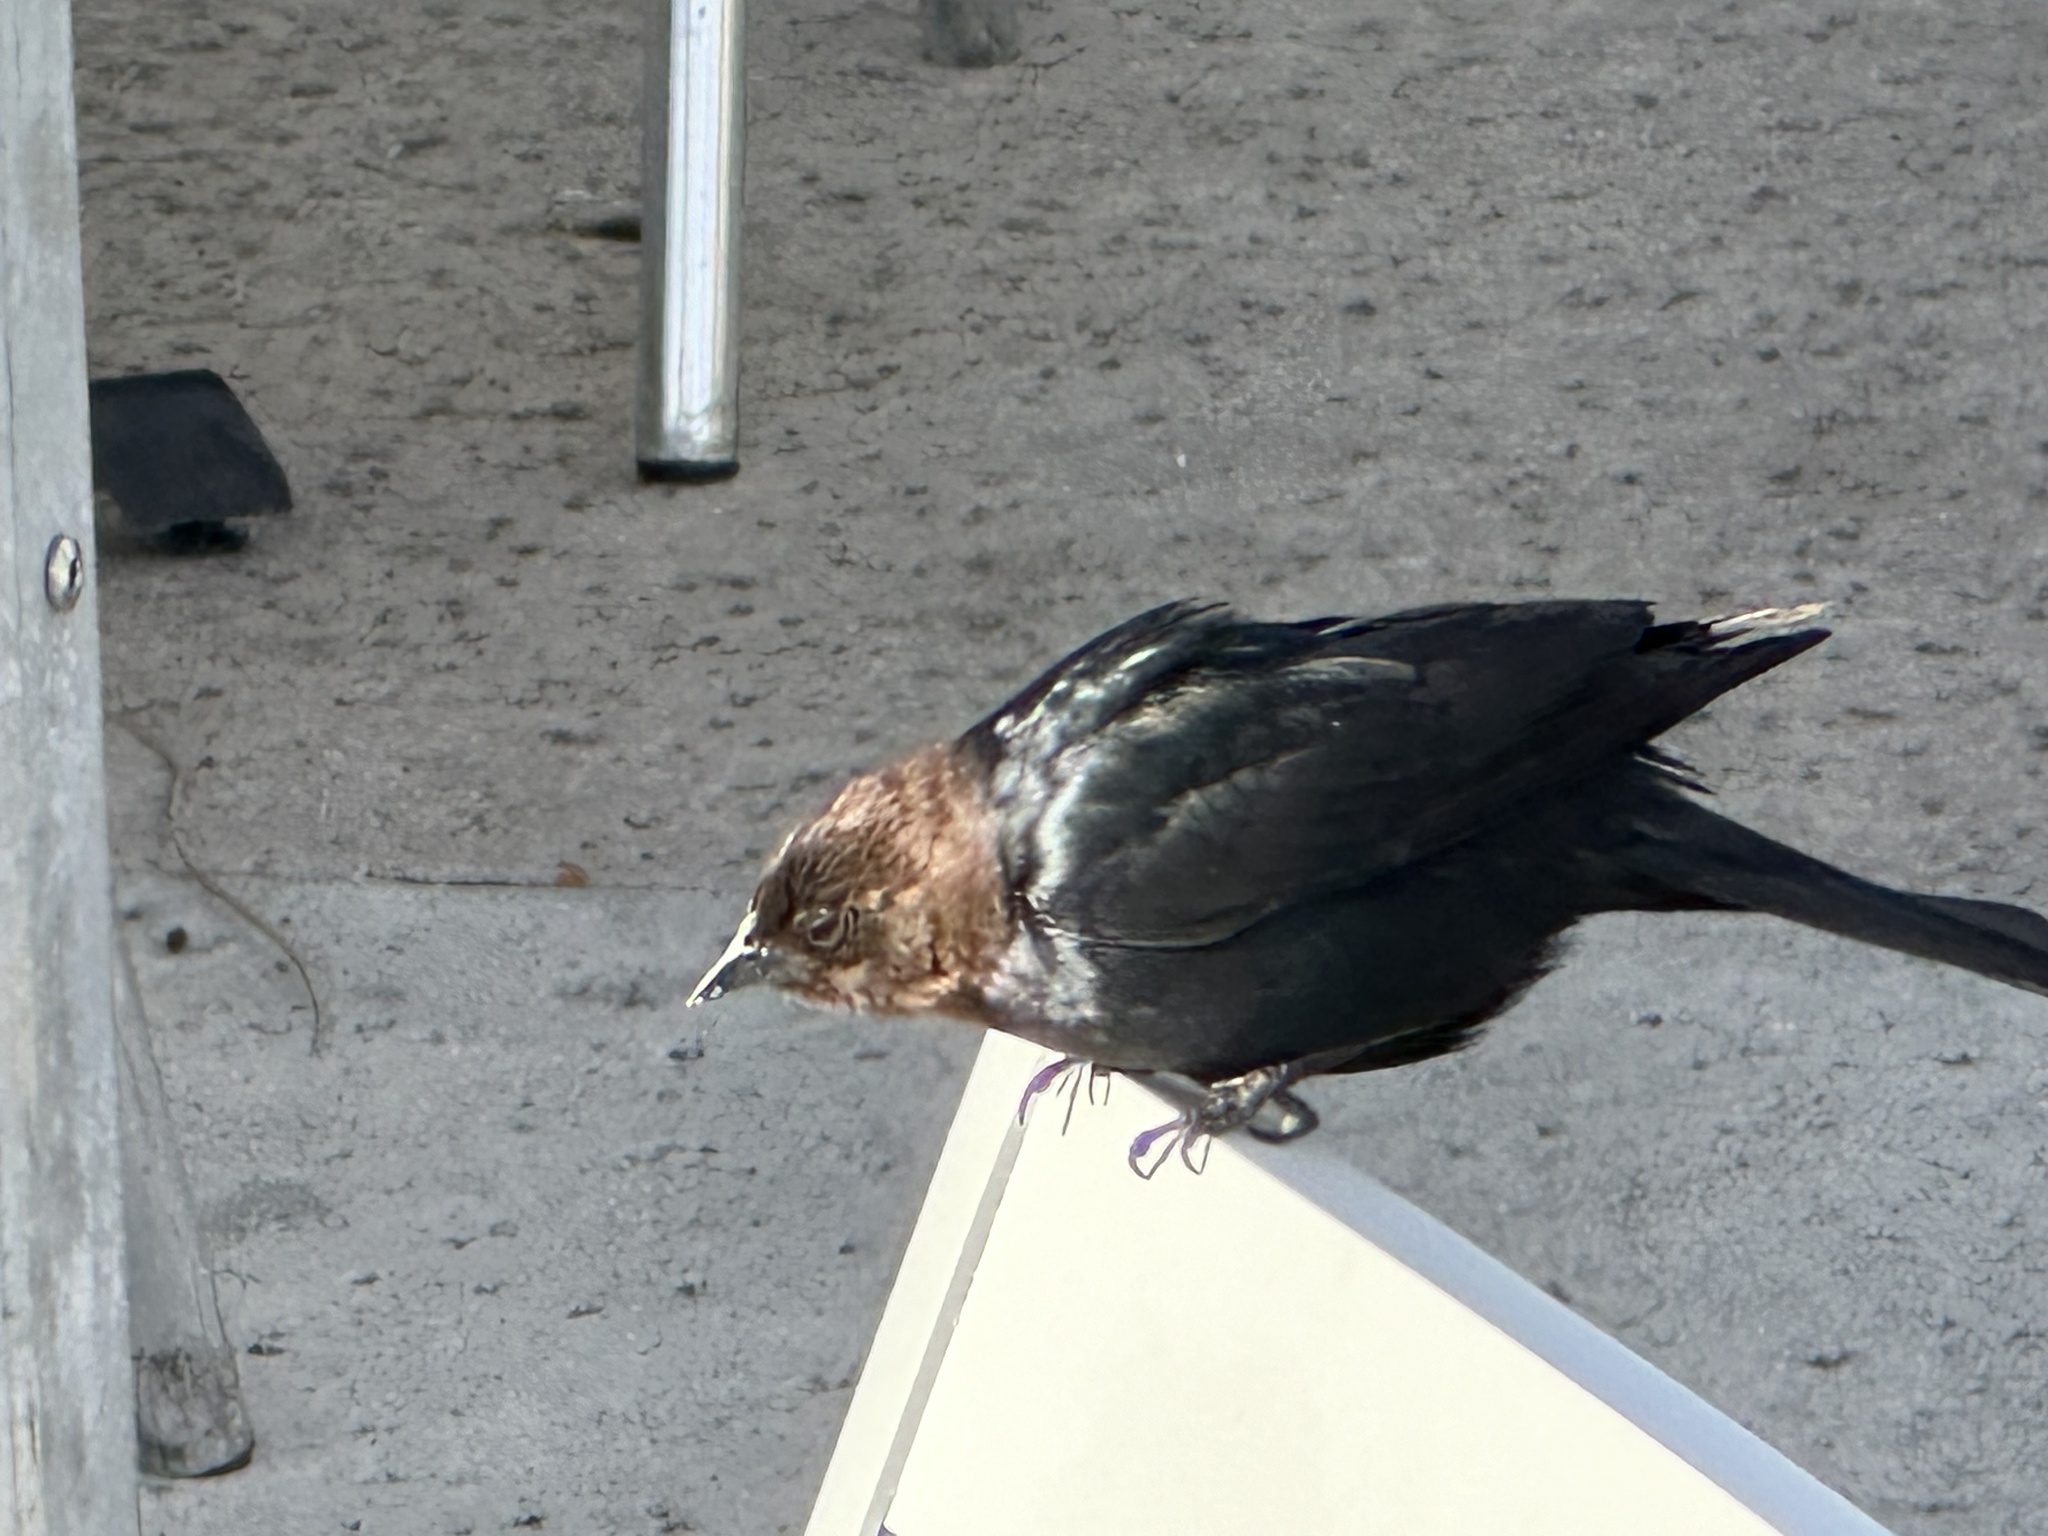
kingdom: Animalia
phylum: Chordata
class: Aves
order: Passeriformes
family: Icteridae
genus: Molothrus
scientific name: Molothrus ater
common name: Brown-headed cowbird
